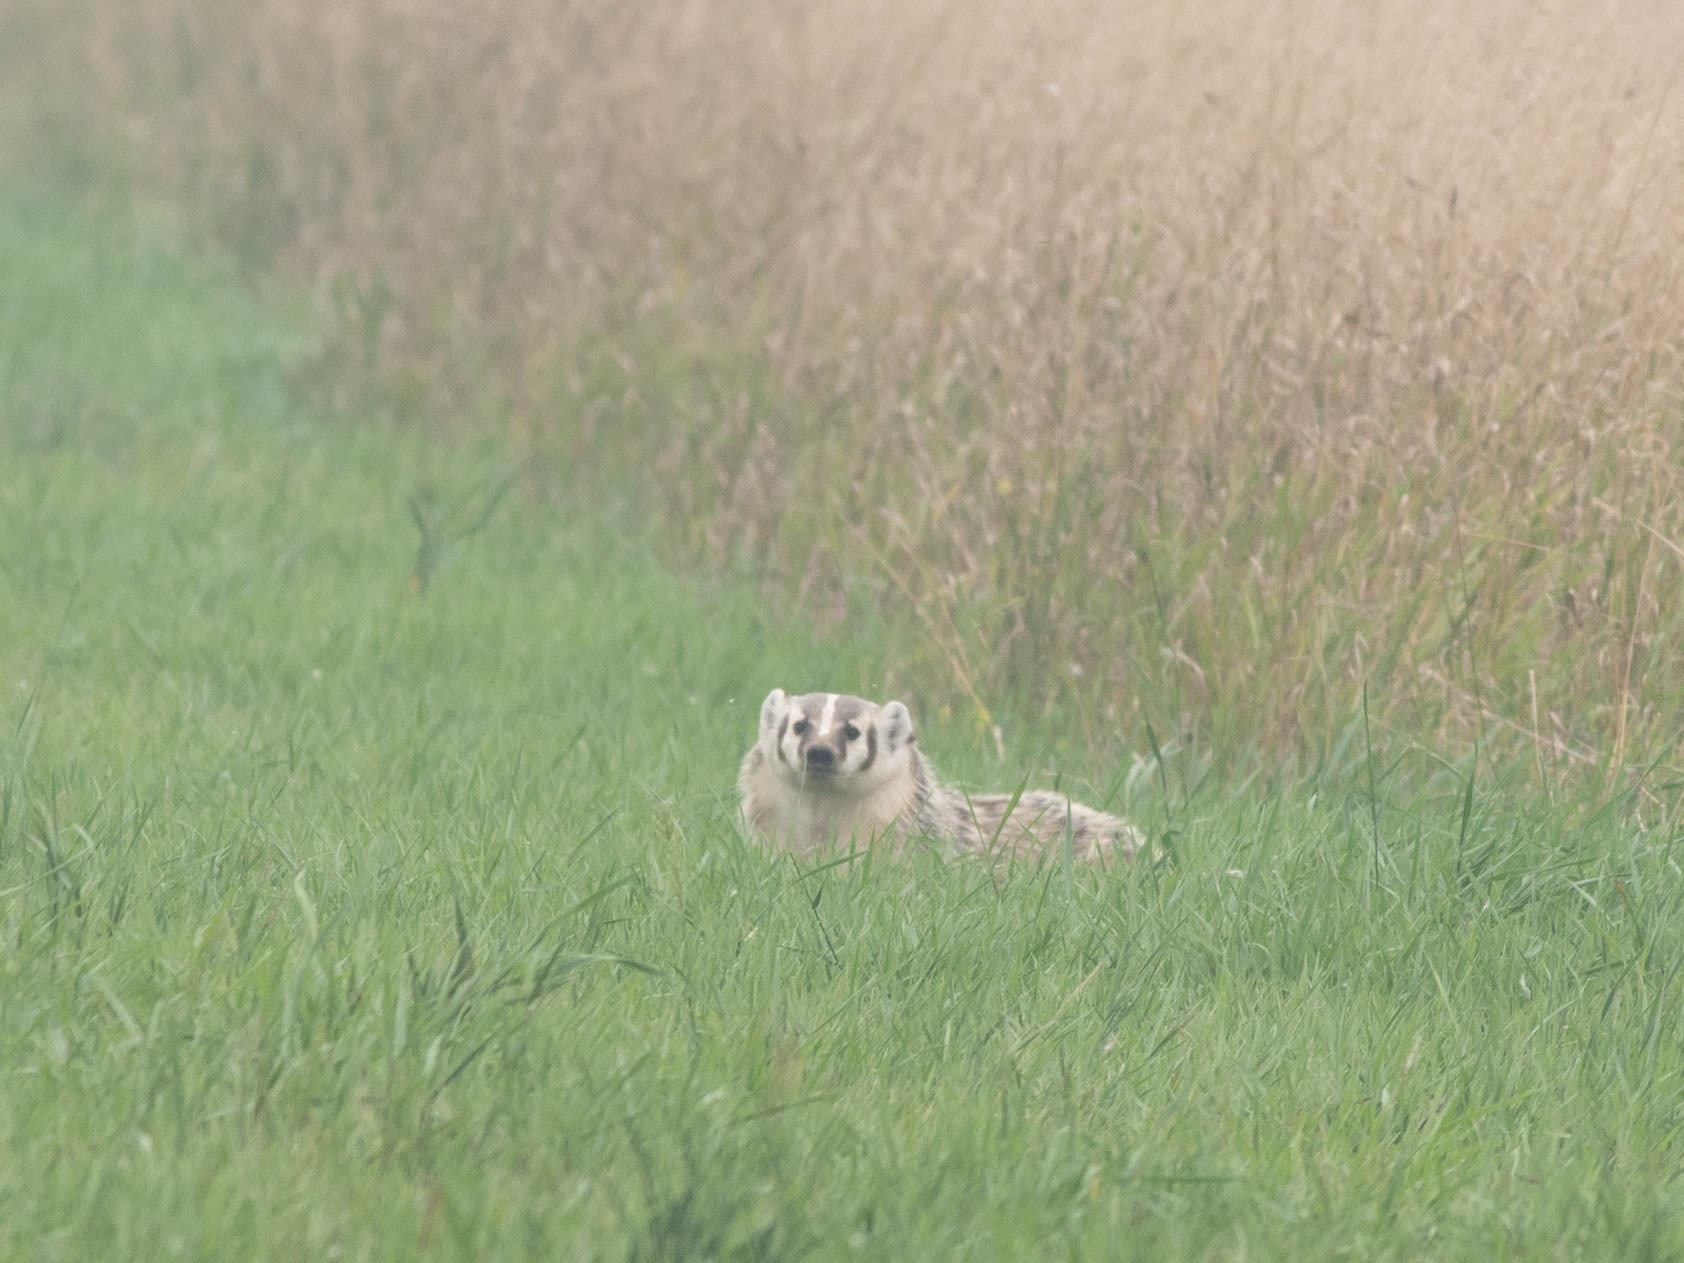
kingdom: Animalia
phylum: Chordata
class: Mammalia
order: Carnivora
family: Mustelidae
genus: Taxidea
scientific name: Taxidea taxus
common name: American badger
